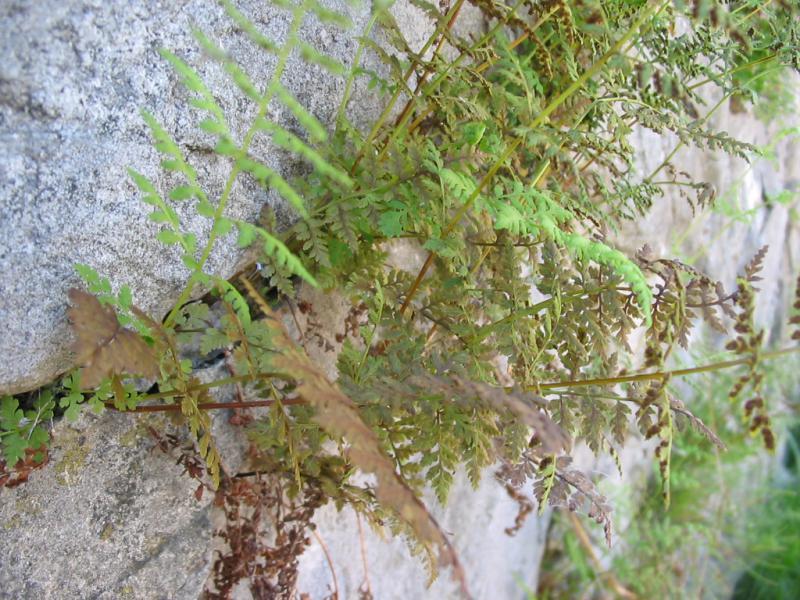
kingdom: Plantae
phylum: Tracheophyta
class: Polypodiopsida
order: Polypodiales
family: Cystopteridaceae
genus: Cystopteris
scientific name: Cystopteris fragilis
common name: Brittle bladder fern
